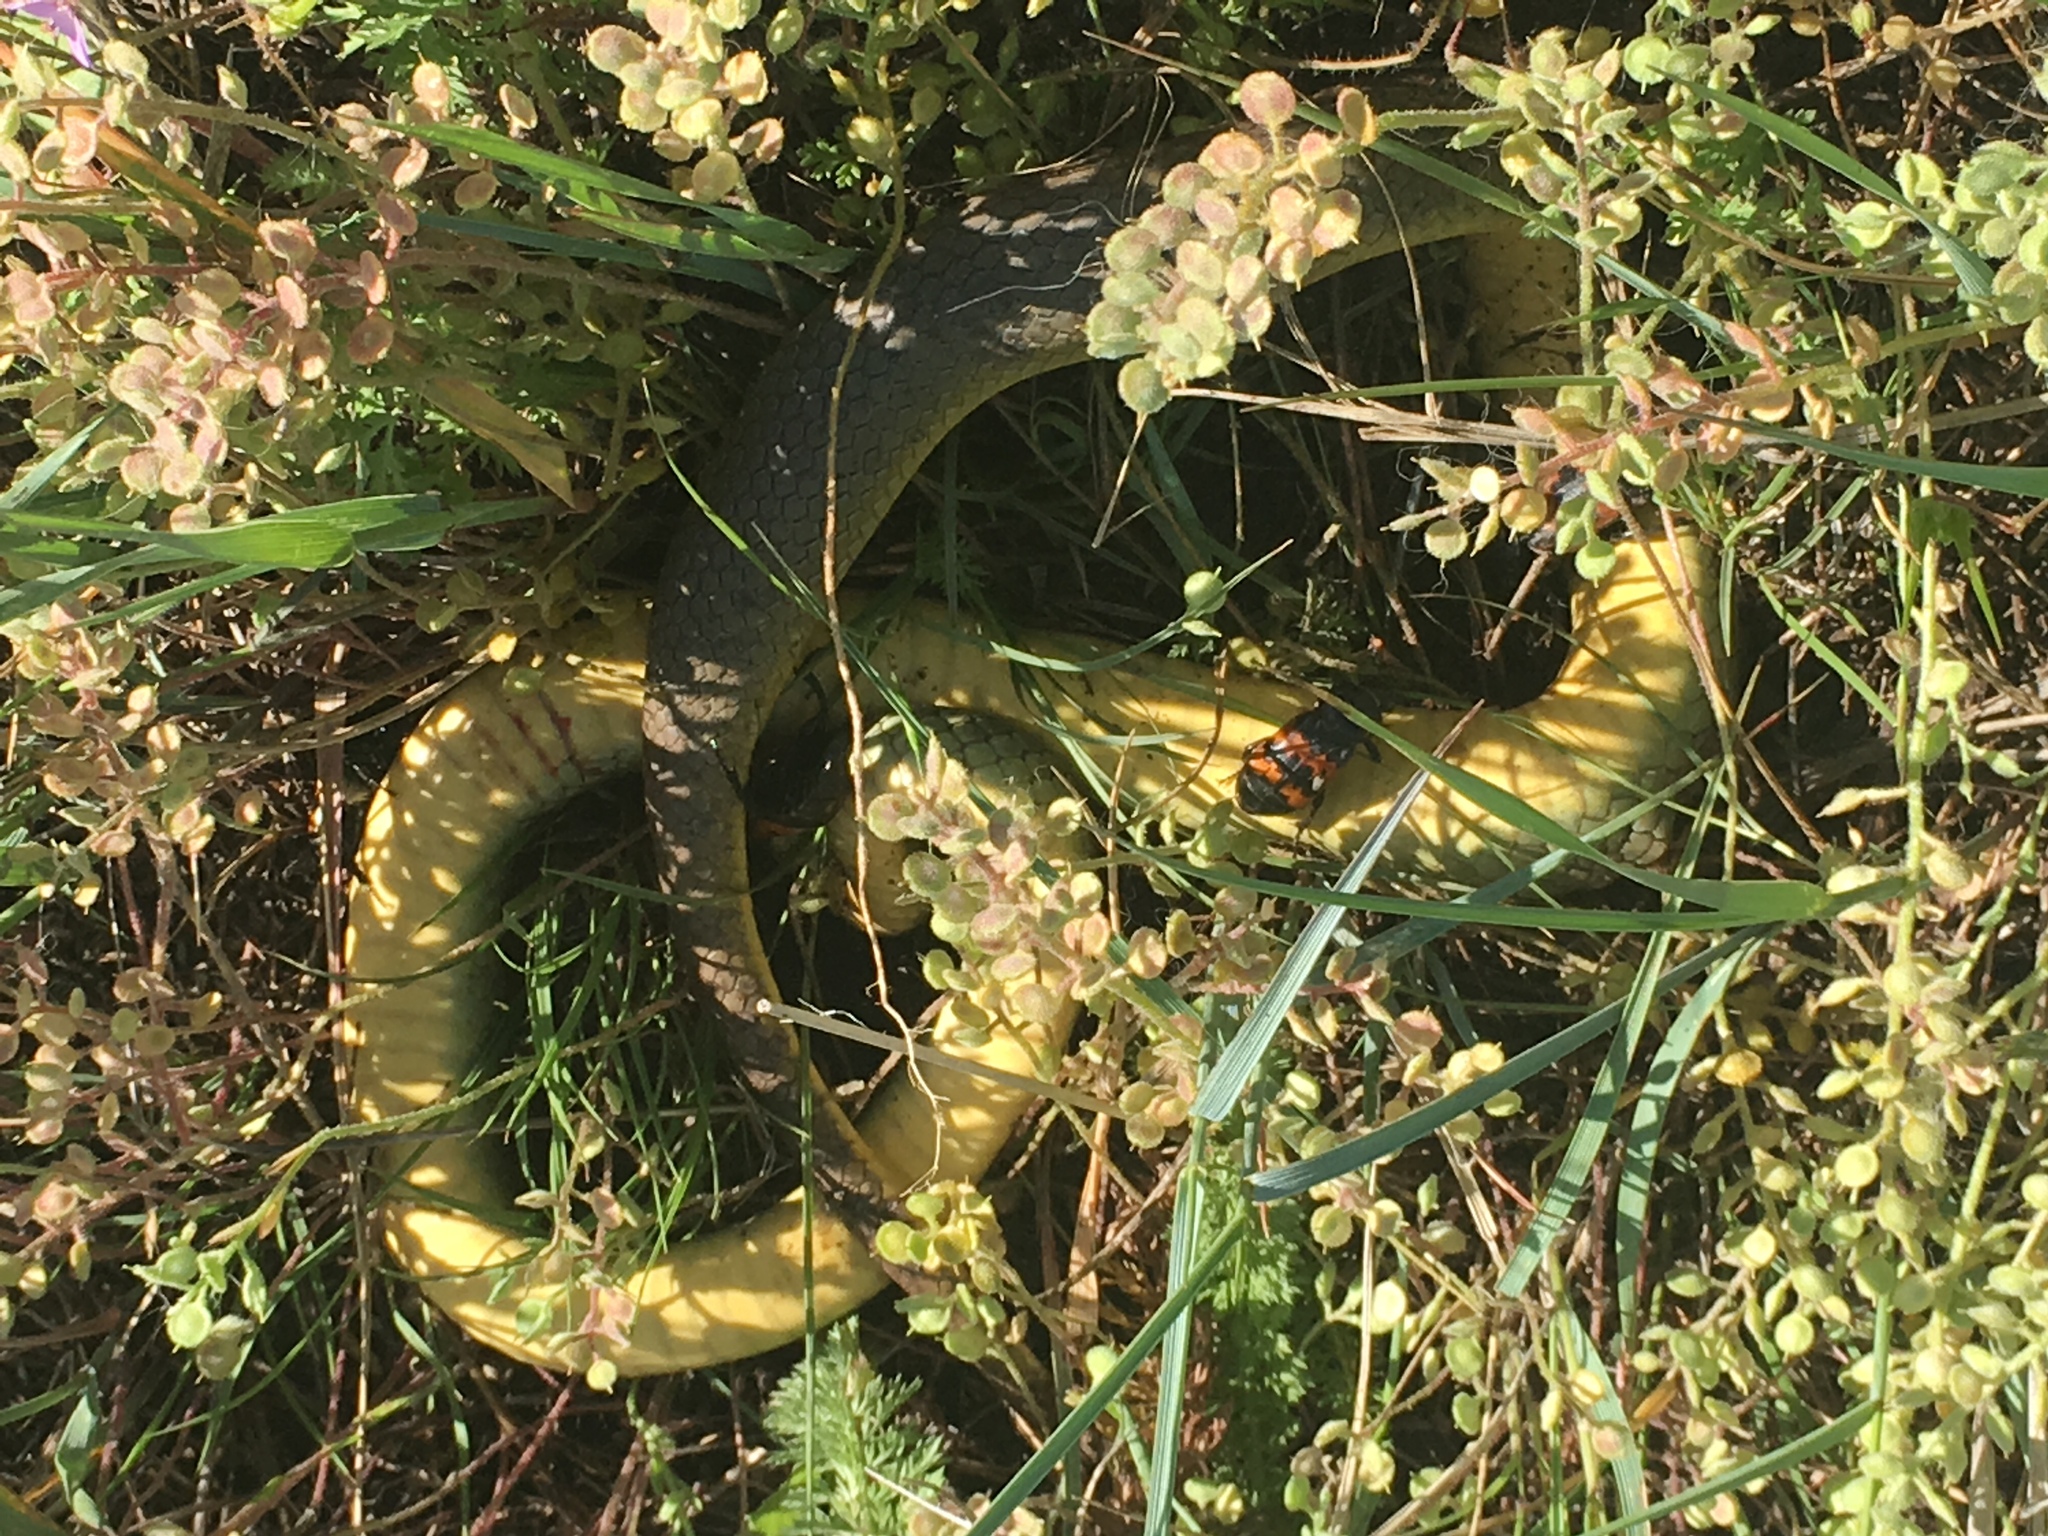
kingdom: Animalia
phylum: Chordata
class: Squamata
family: Colubridae
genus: Coluber
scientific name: Coluber constrictor
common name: Eastern racer
